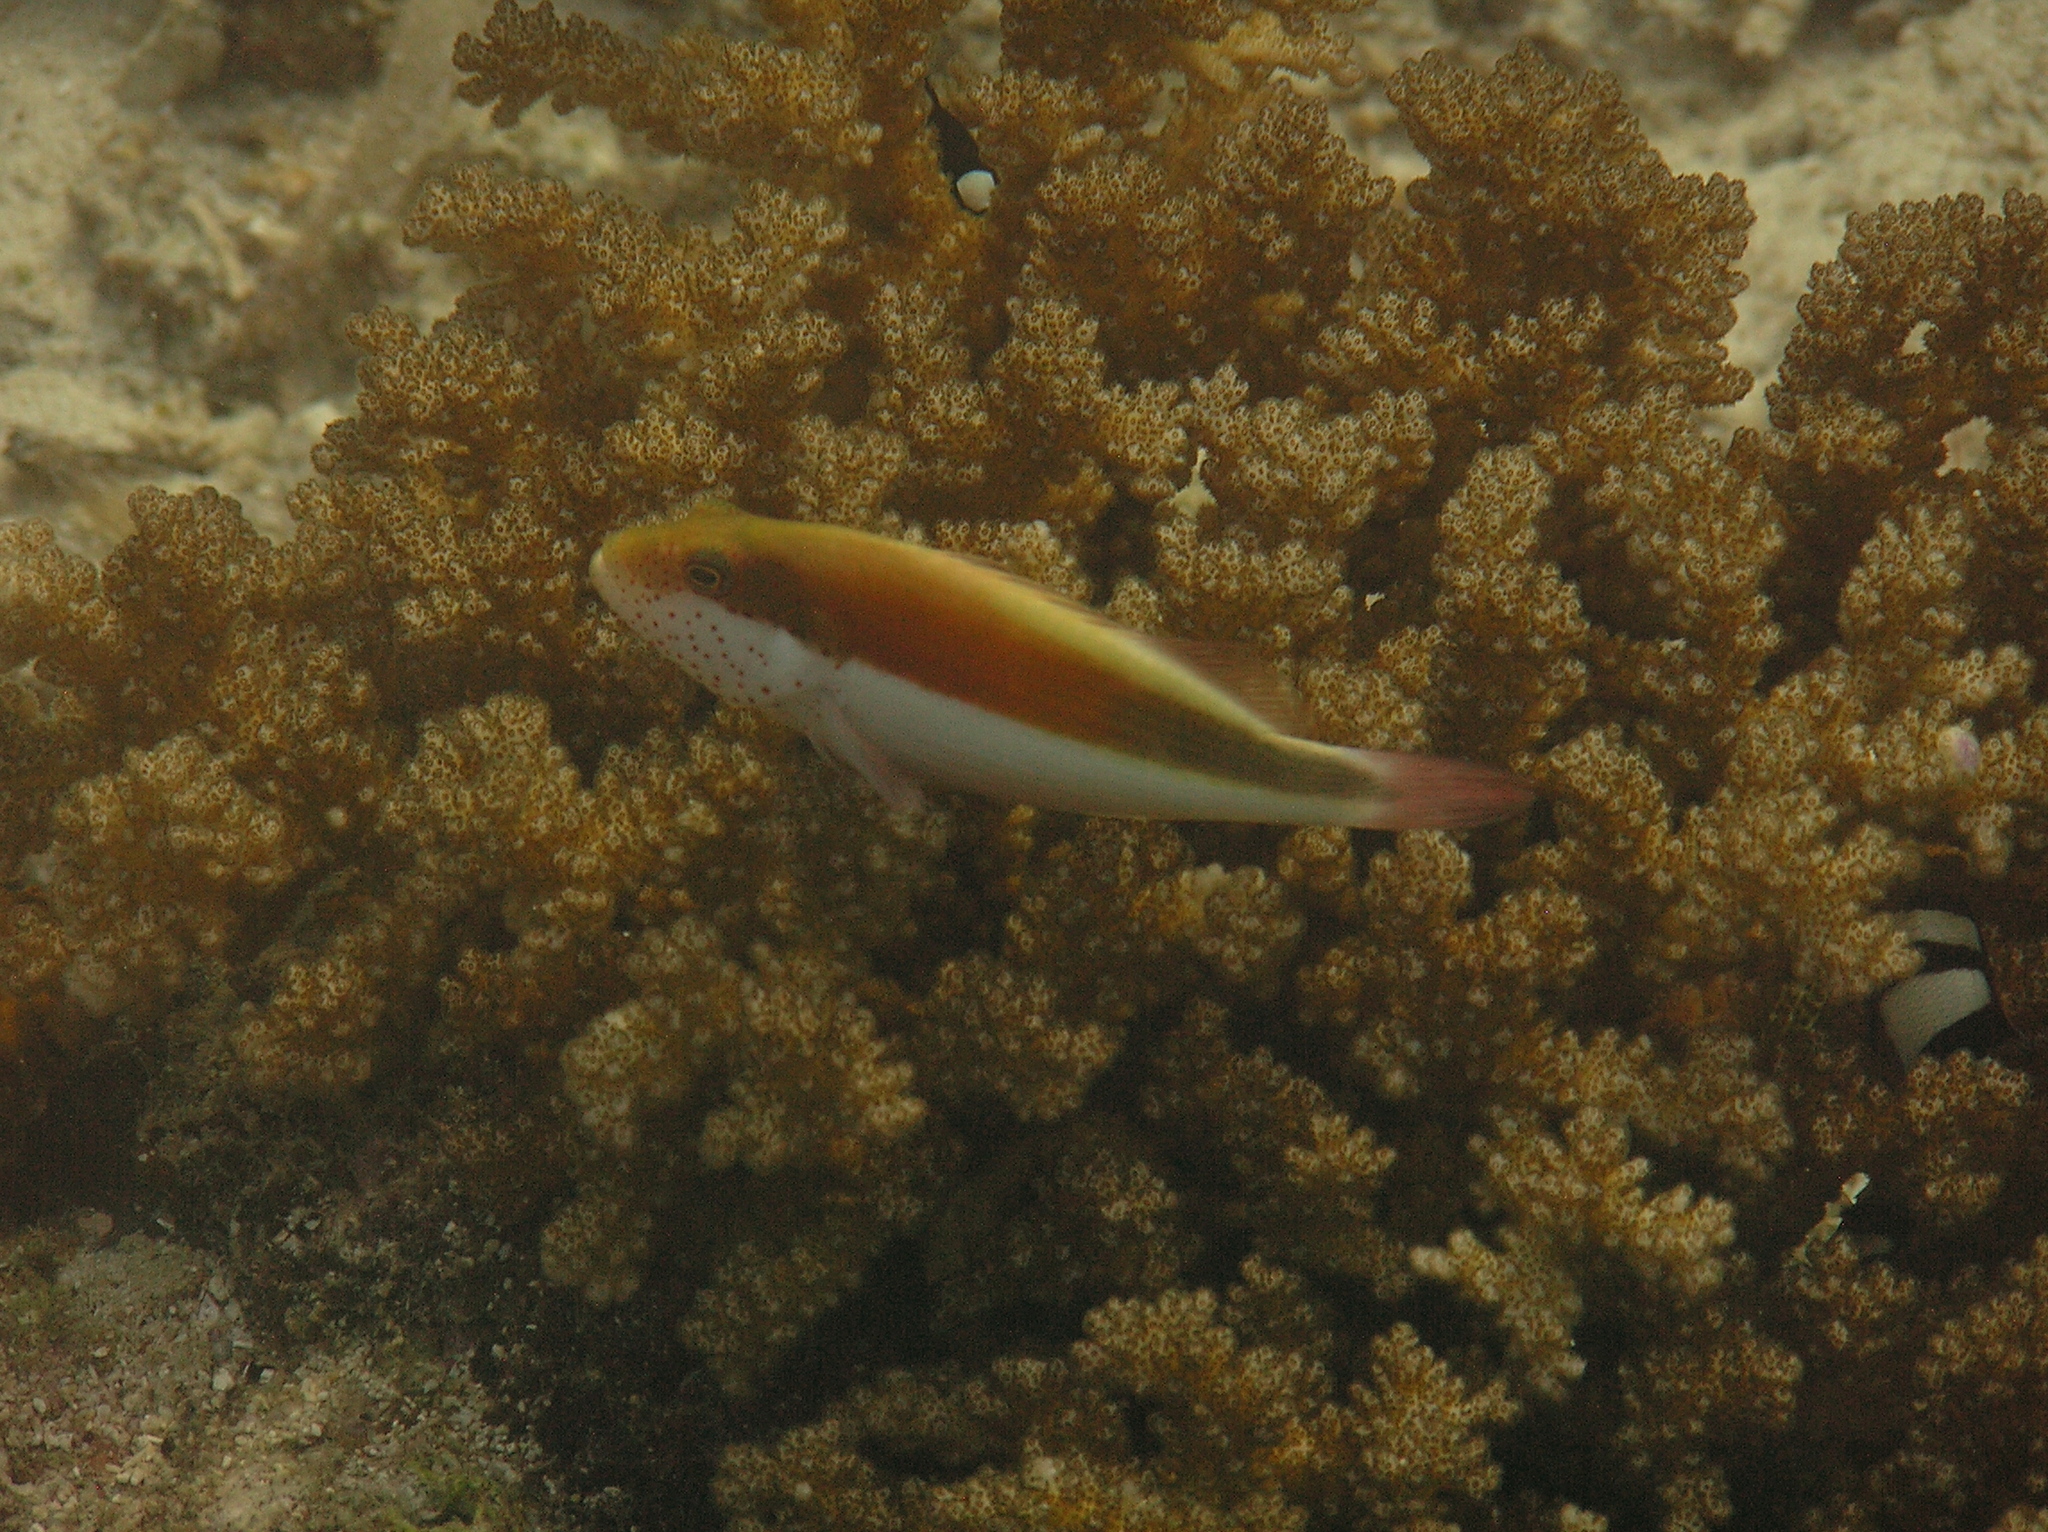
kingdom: Animalia
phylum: Chordata
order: Perciformes
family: Cirrhitidae
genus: Paracirrhites
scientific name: Paracirrhites forsteri
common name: Freckled hawkfish
